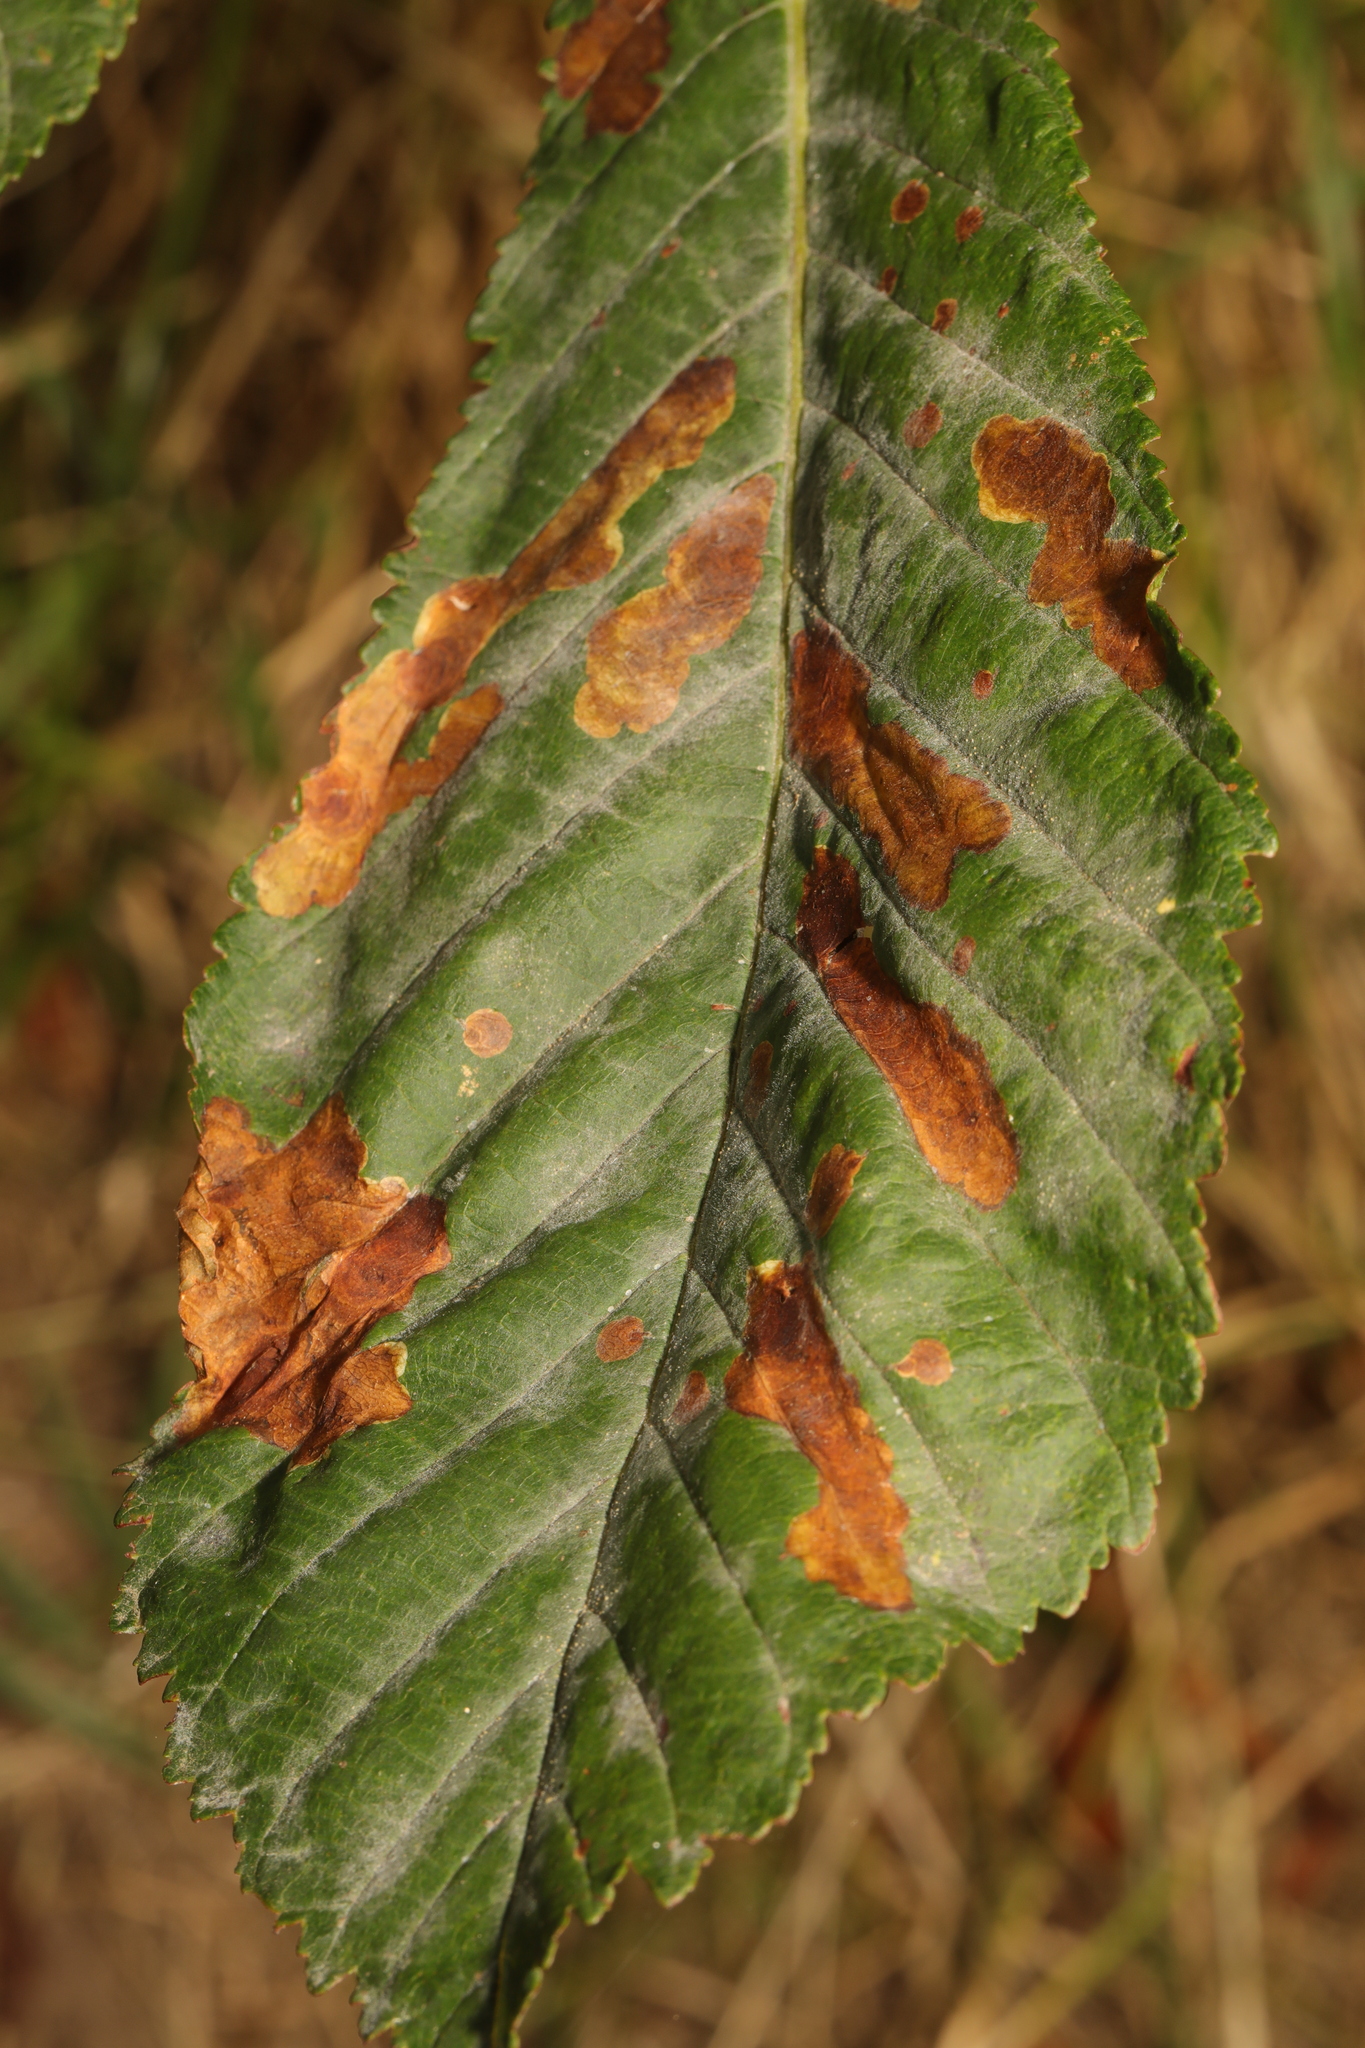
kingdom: Animalia
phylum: Arthropoda
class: Insecta
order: Lepidoptera
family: Gracillariidae
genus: Cameraria
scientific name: Cameraria ohridella
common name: Horse-chestnut leaf-miner
